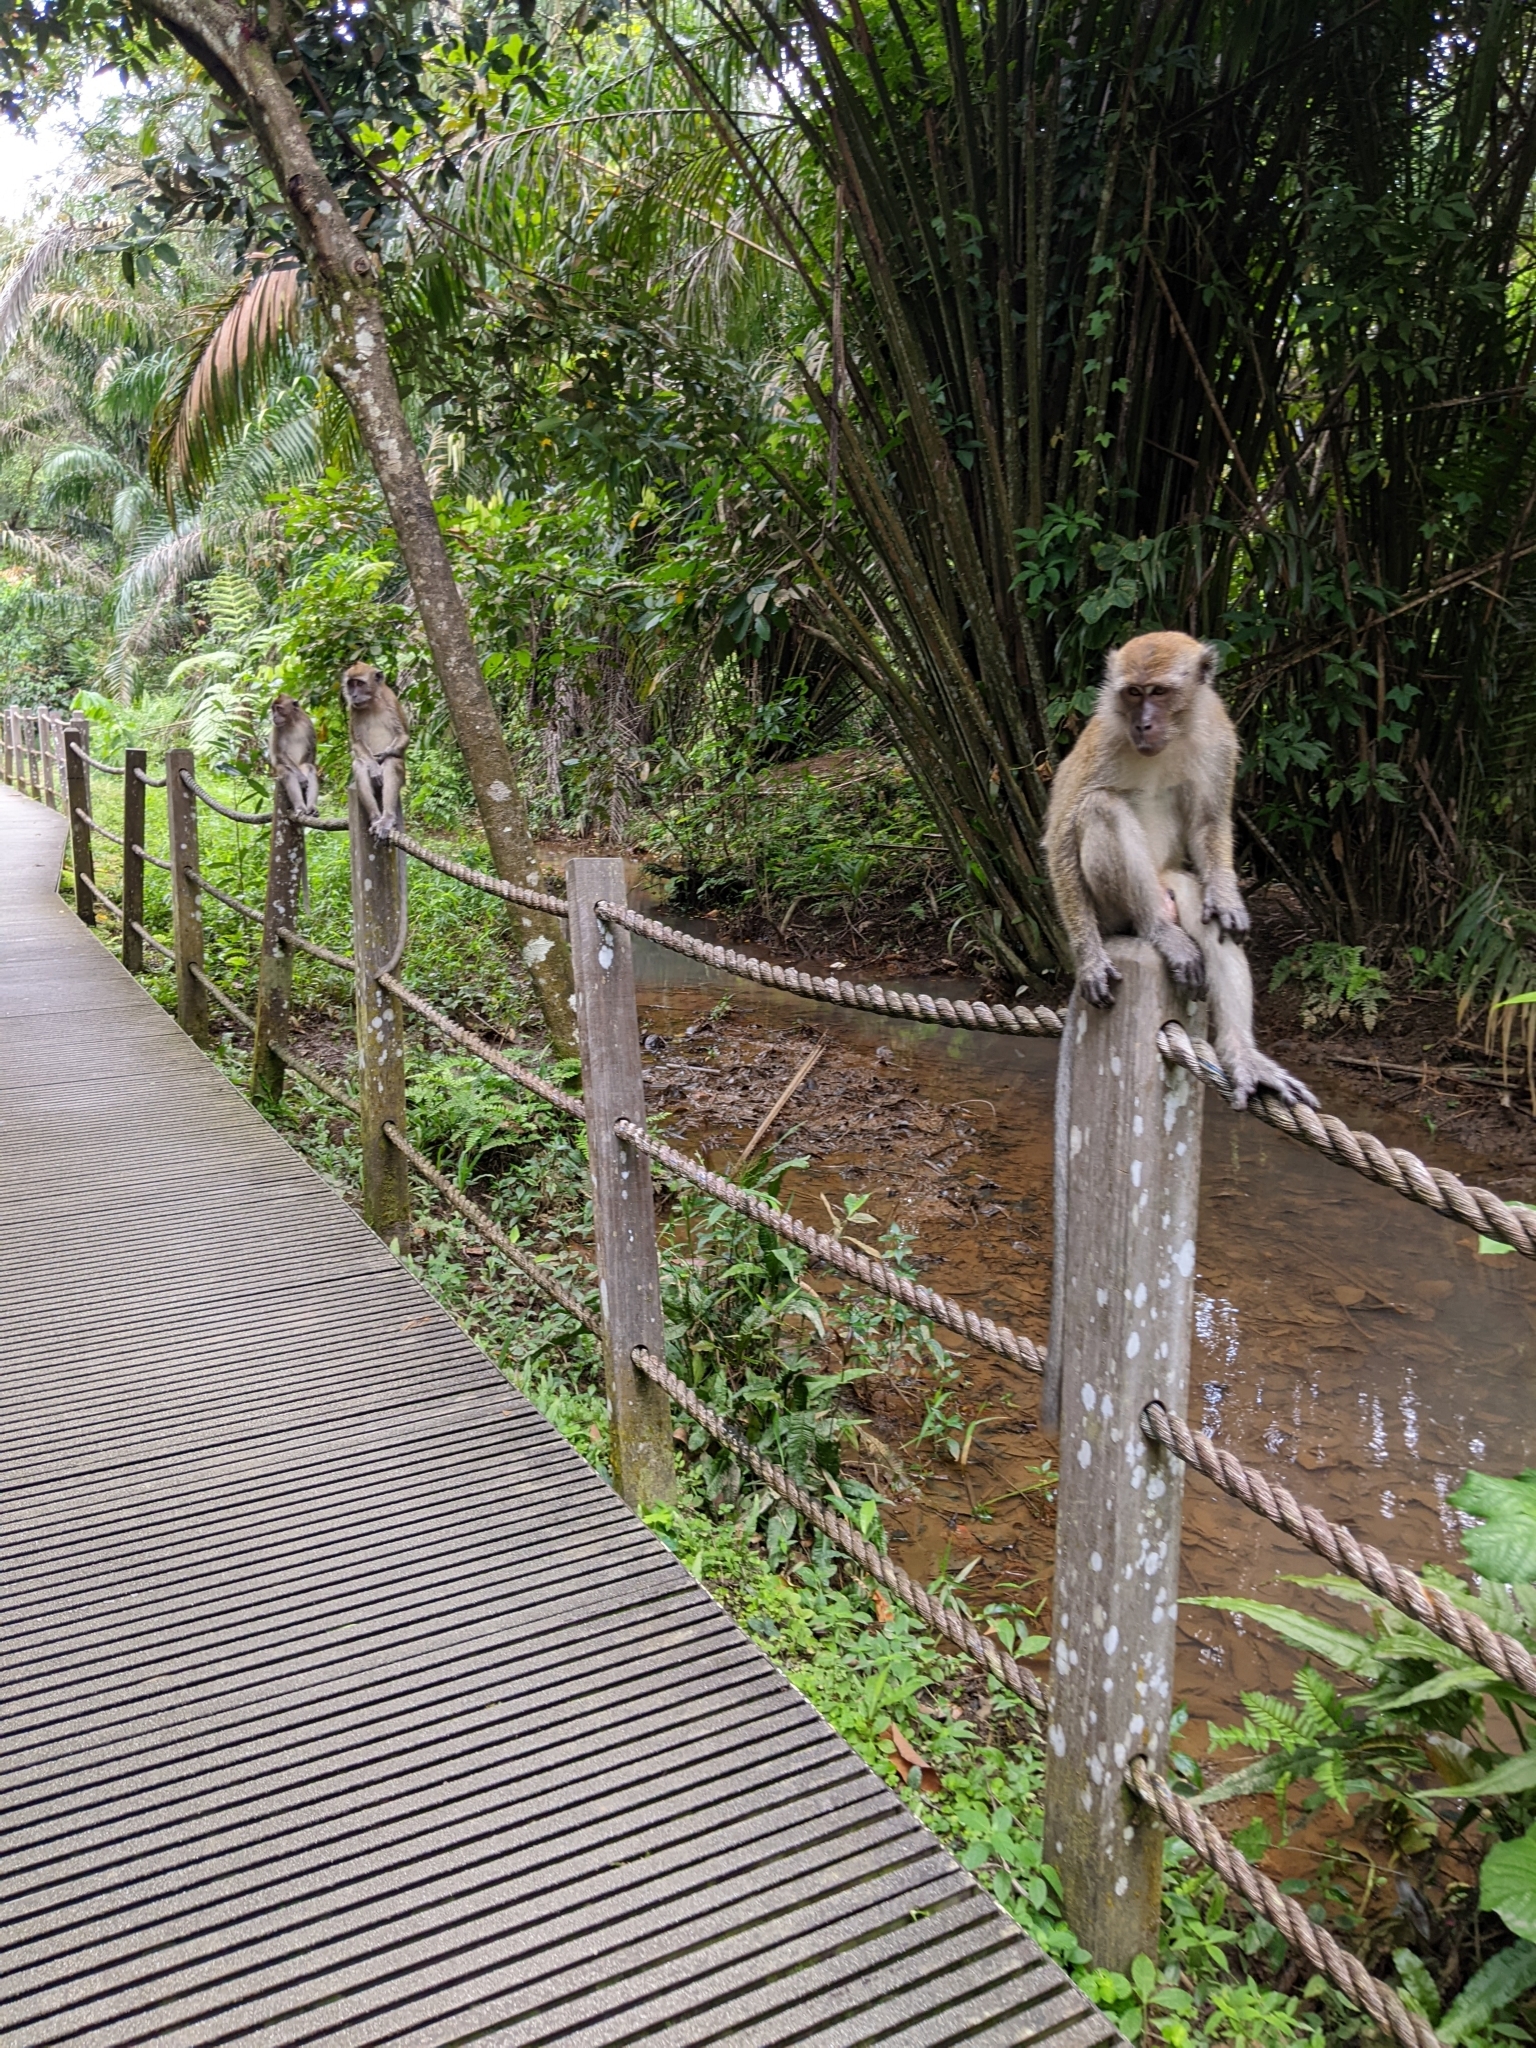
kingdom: Animalia
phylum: Chordata
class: Mammalia
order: Primates
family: Cercopithecidae
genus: Macaca
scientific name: Macaca fascicularis
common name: Crab-eating macaque
